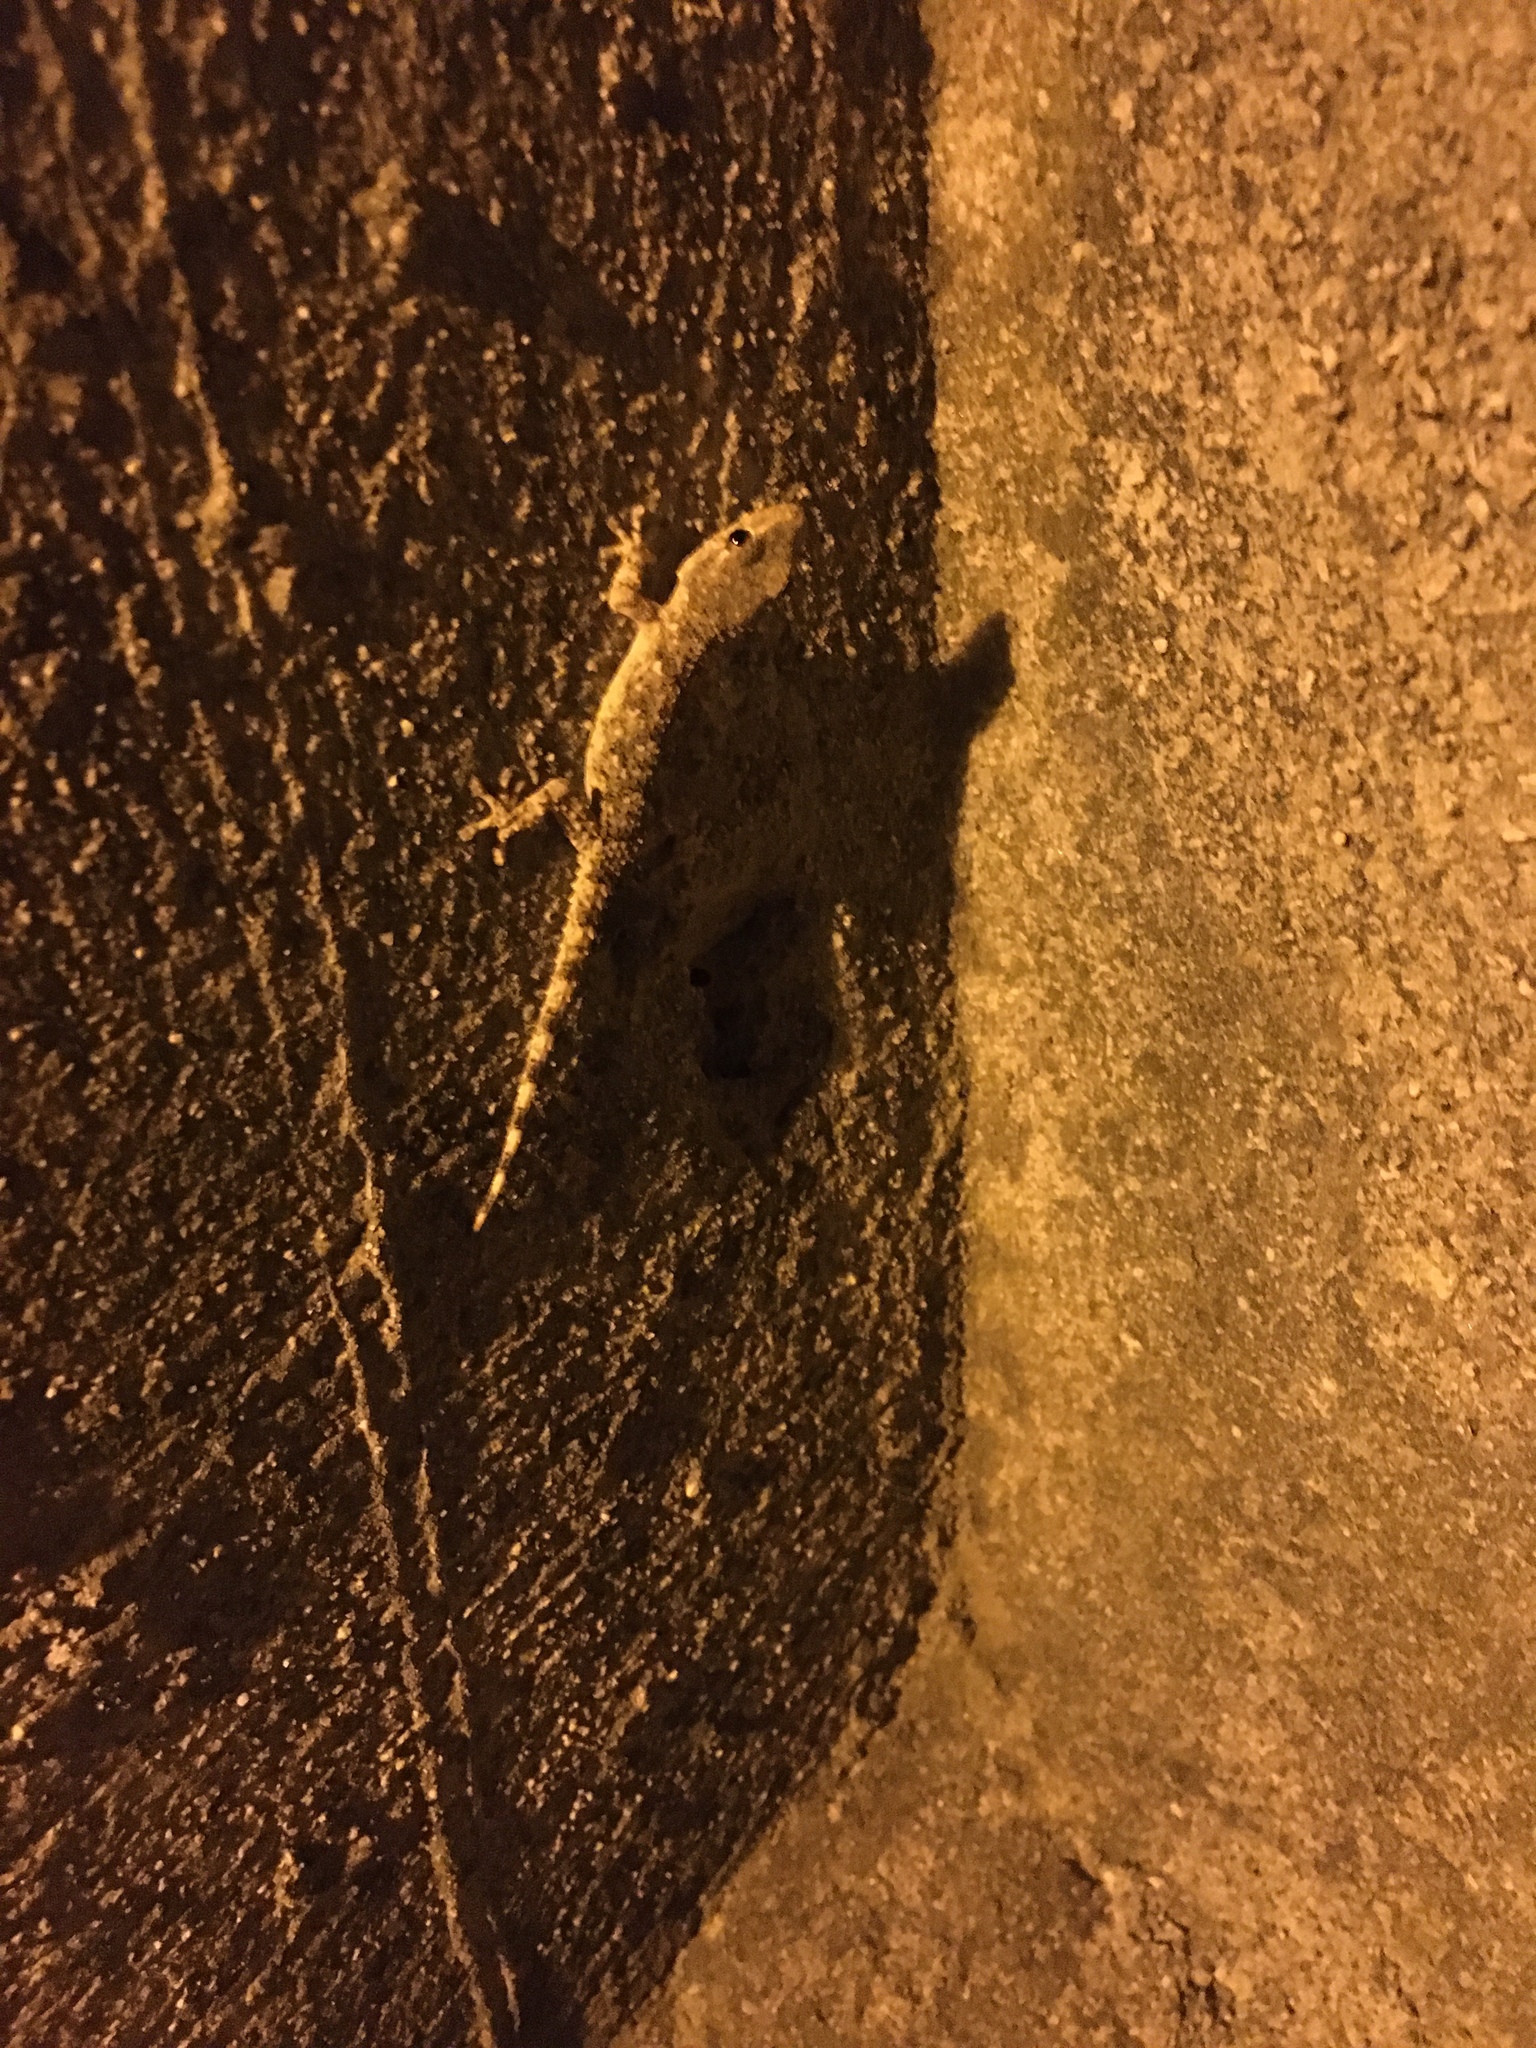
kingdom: Animalia
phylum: Chordata
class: Squamata
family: Phyllodactylidae
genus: Tarentola
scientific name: Tarentola mauritanica
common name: Moorish gecko
